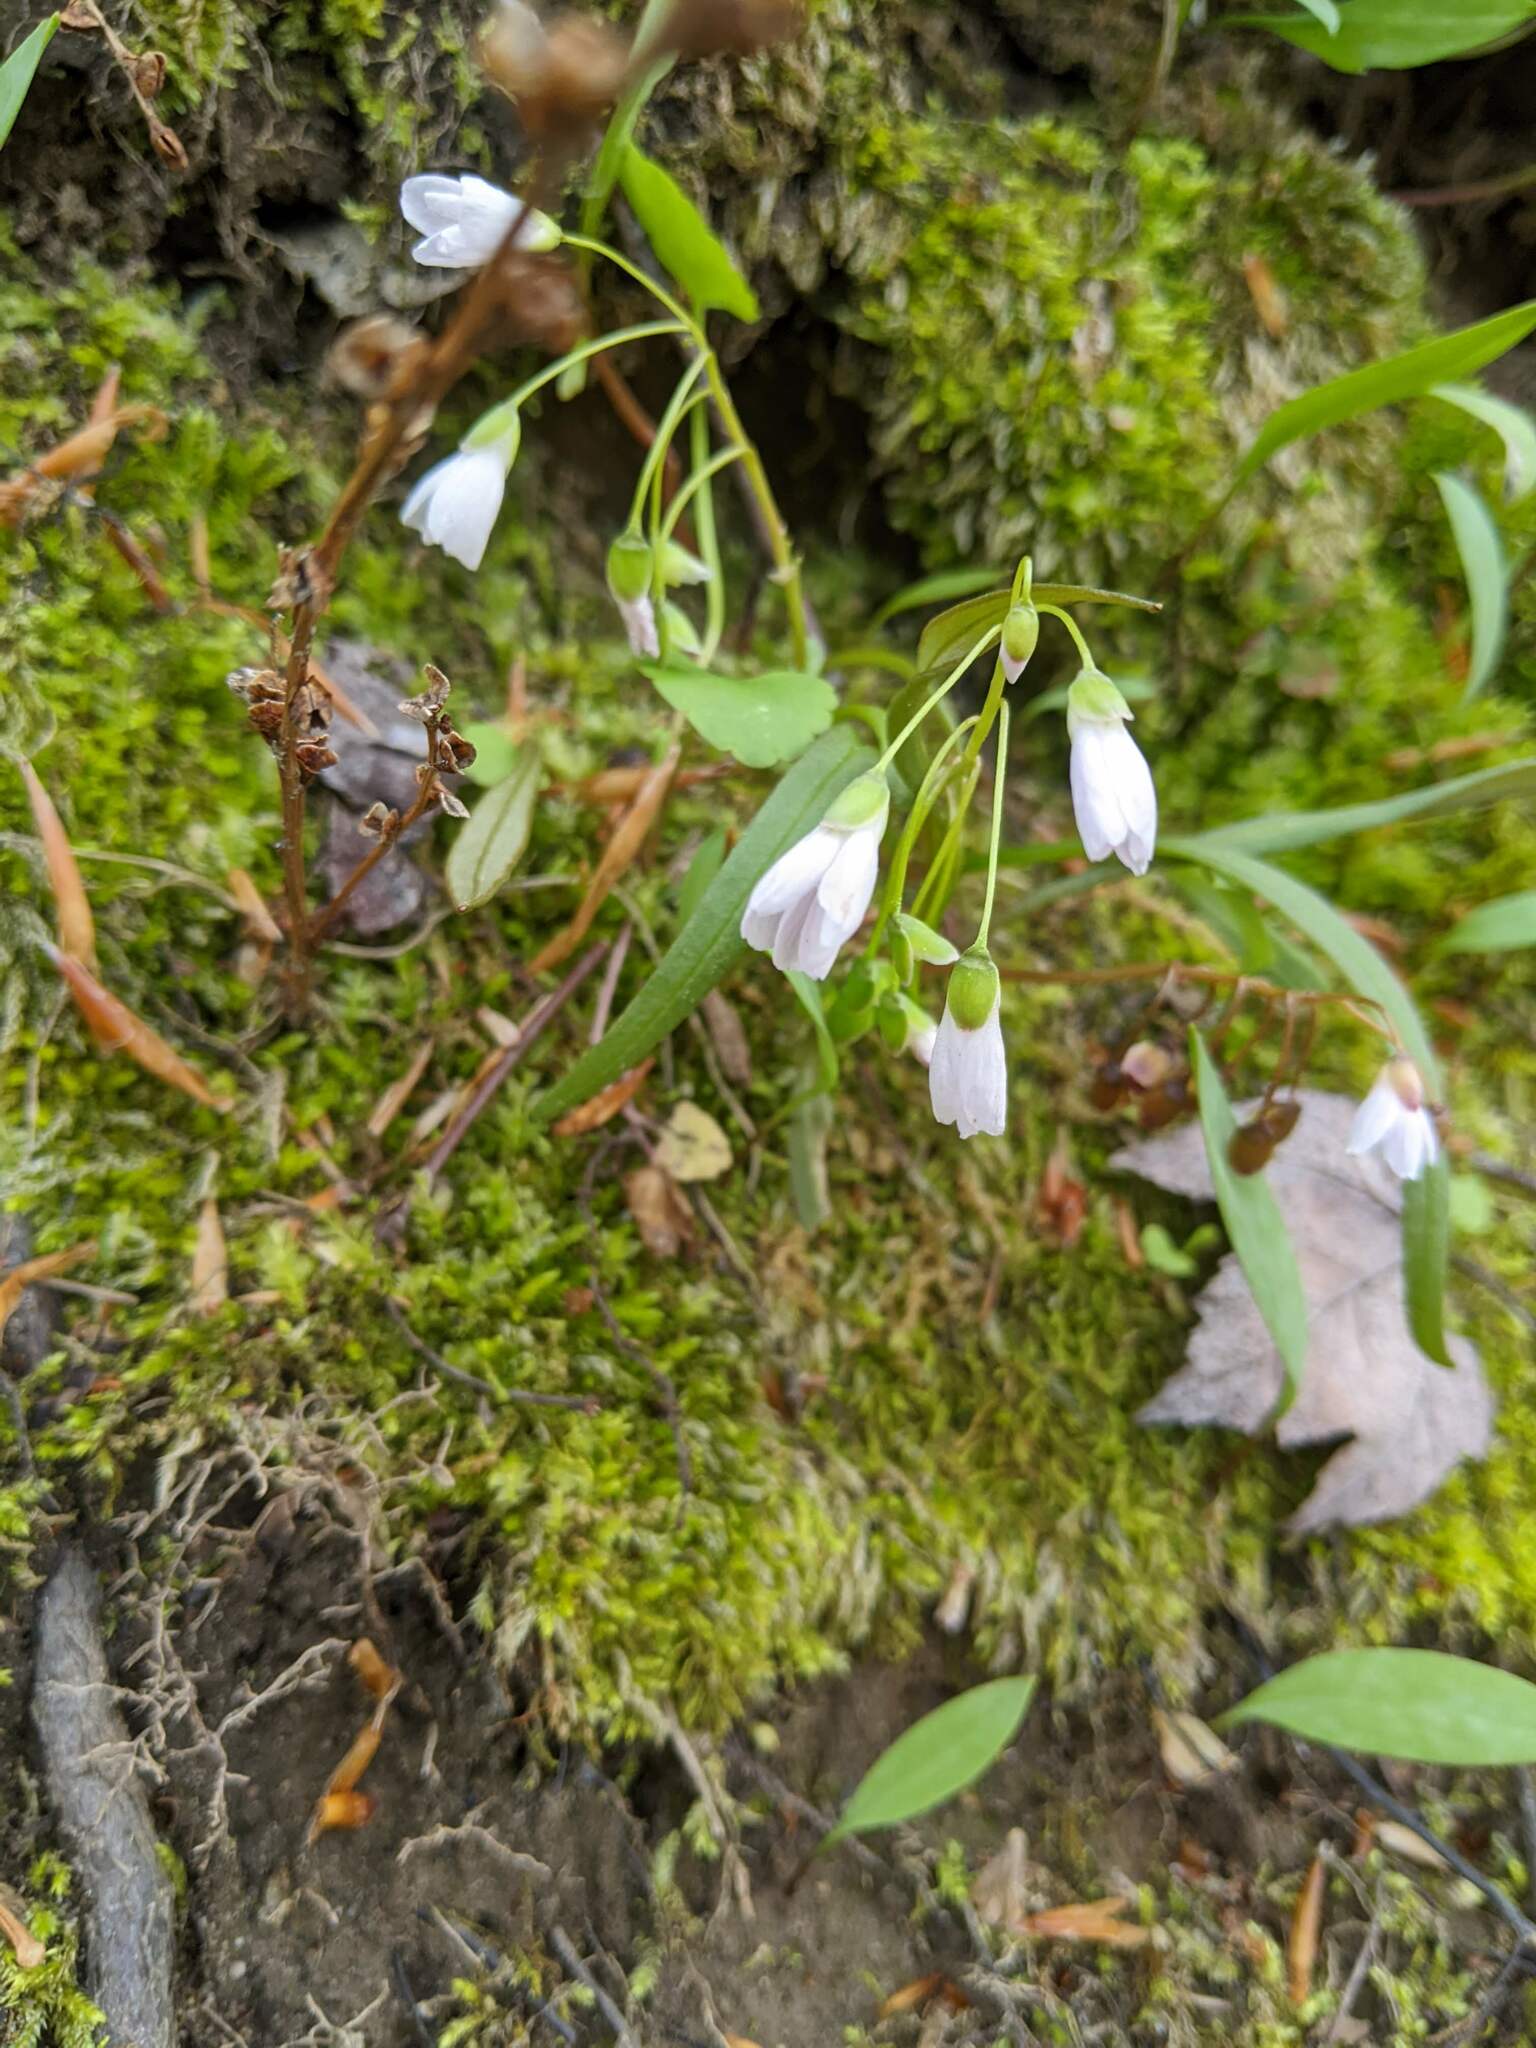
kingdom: Plantae
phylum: Tracheophyta
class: Magnoliopsida
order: Caryophyllales
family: Montiaceae
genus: Claytonia
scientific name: Claytonia virginica
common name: Virginia springbeauty
